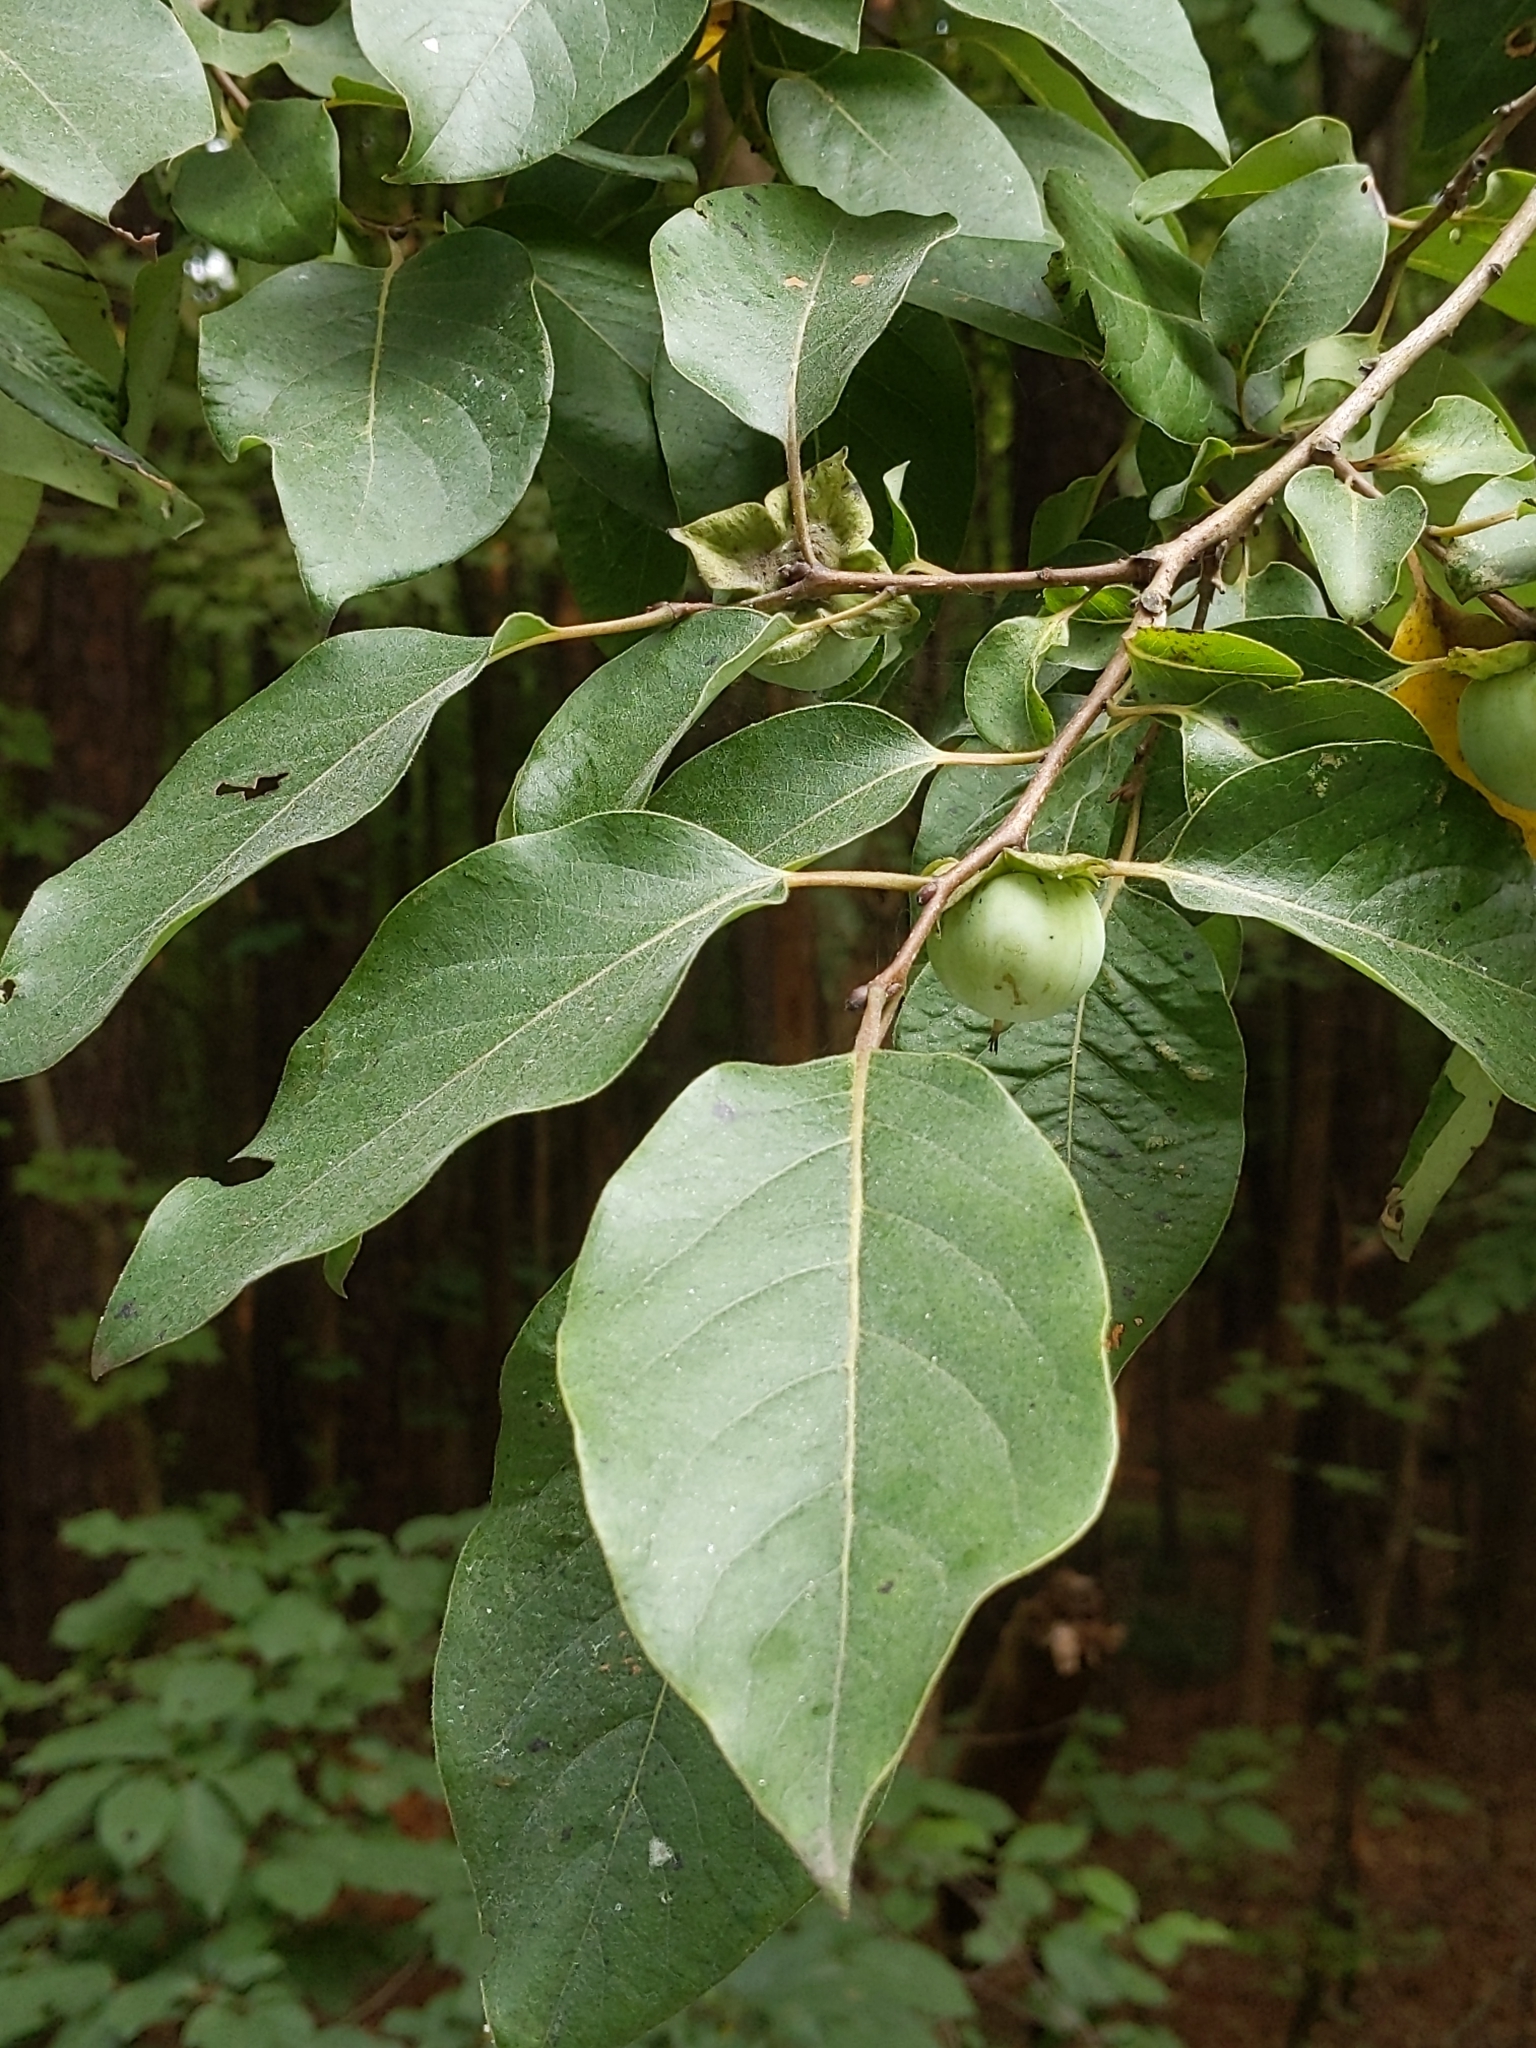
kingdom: Plantae
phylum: Tracheophyta
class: Magnoliopsida
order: Ericales
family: Ebenaceae
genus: Diospyros
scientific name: Diospyros virginiana
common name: Persimmon
